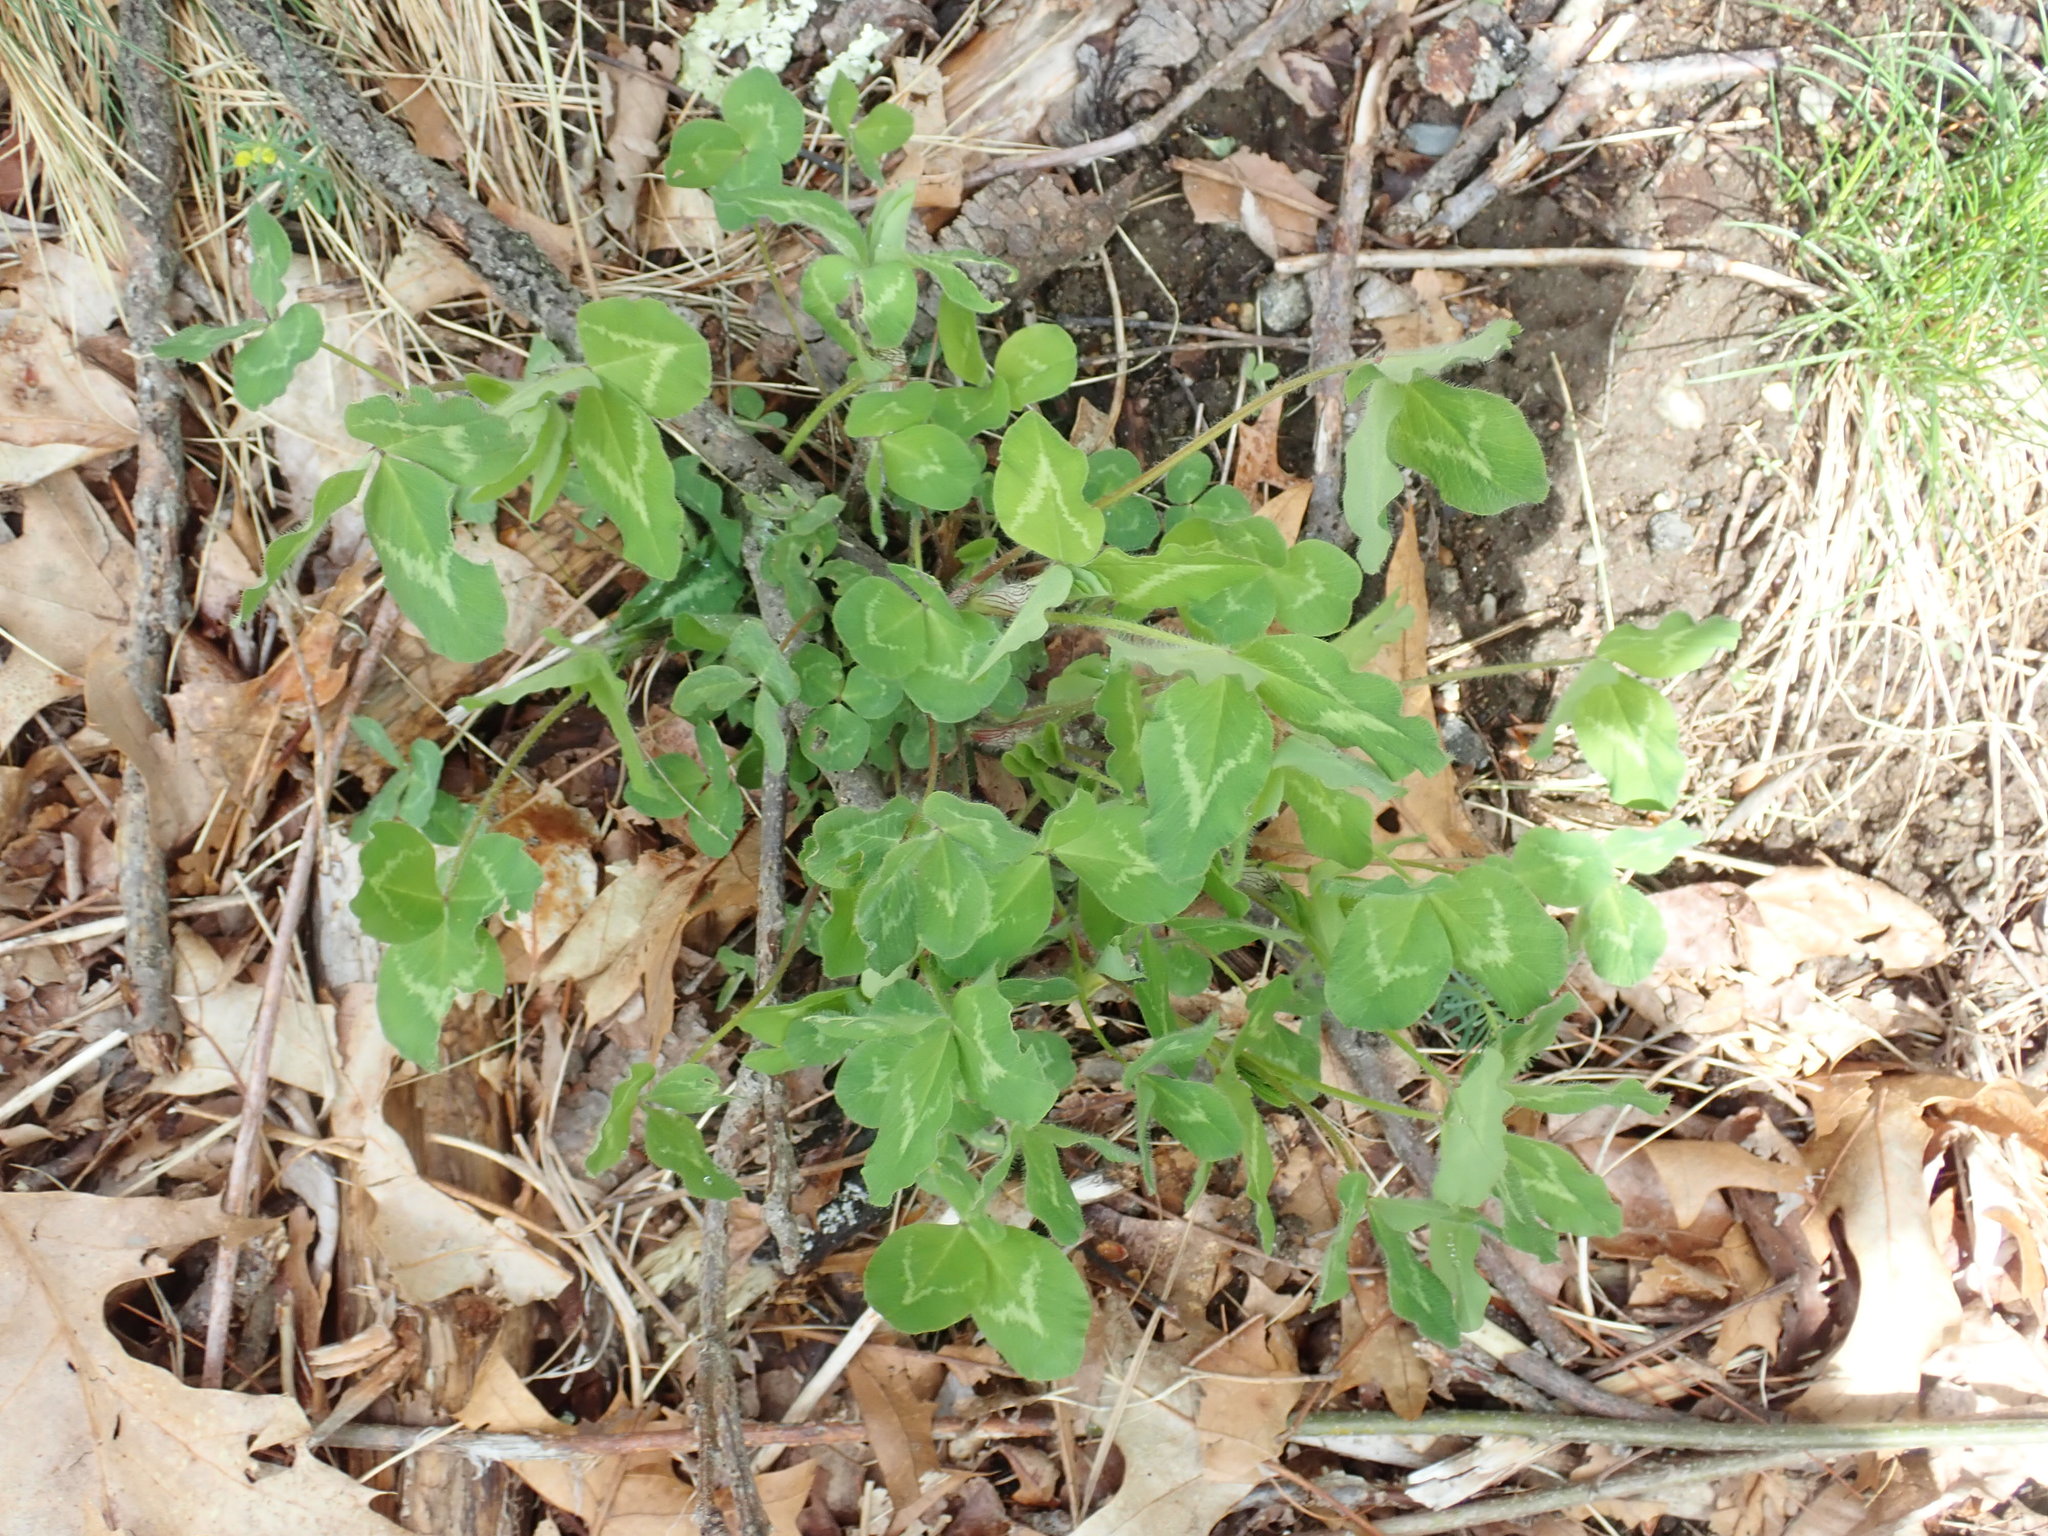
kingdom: Plantae
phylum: Tracheophyta
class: Magnoliopsida
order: Fabales
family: Fabaceae
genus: Trifolium
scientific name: Trifolium pratense
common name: Red clover
